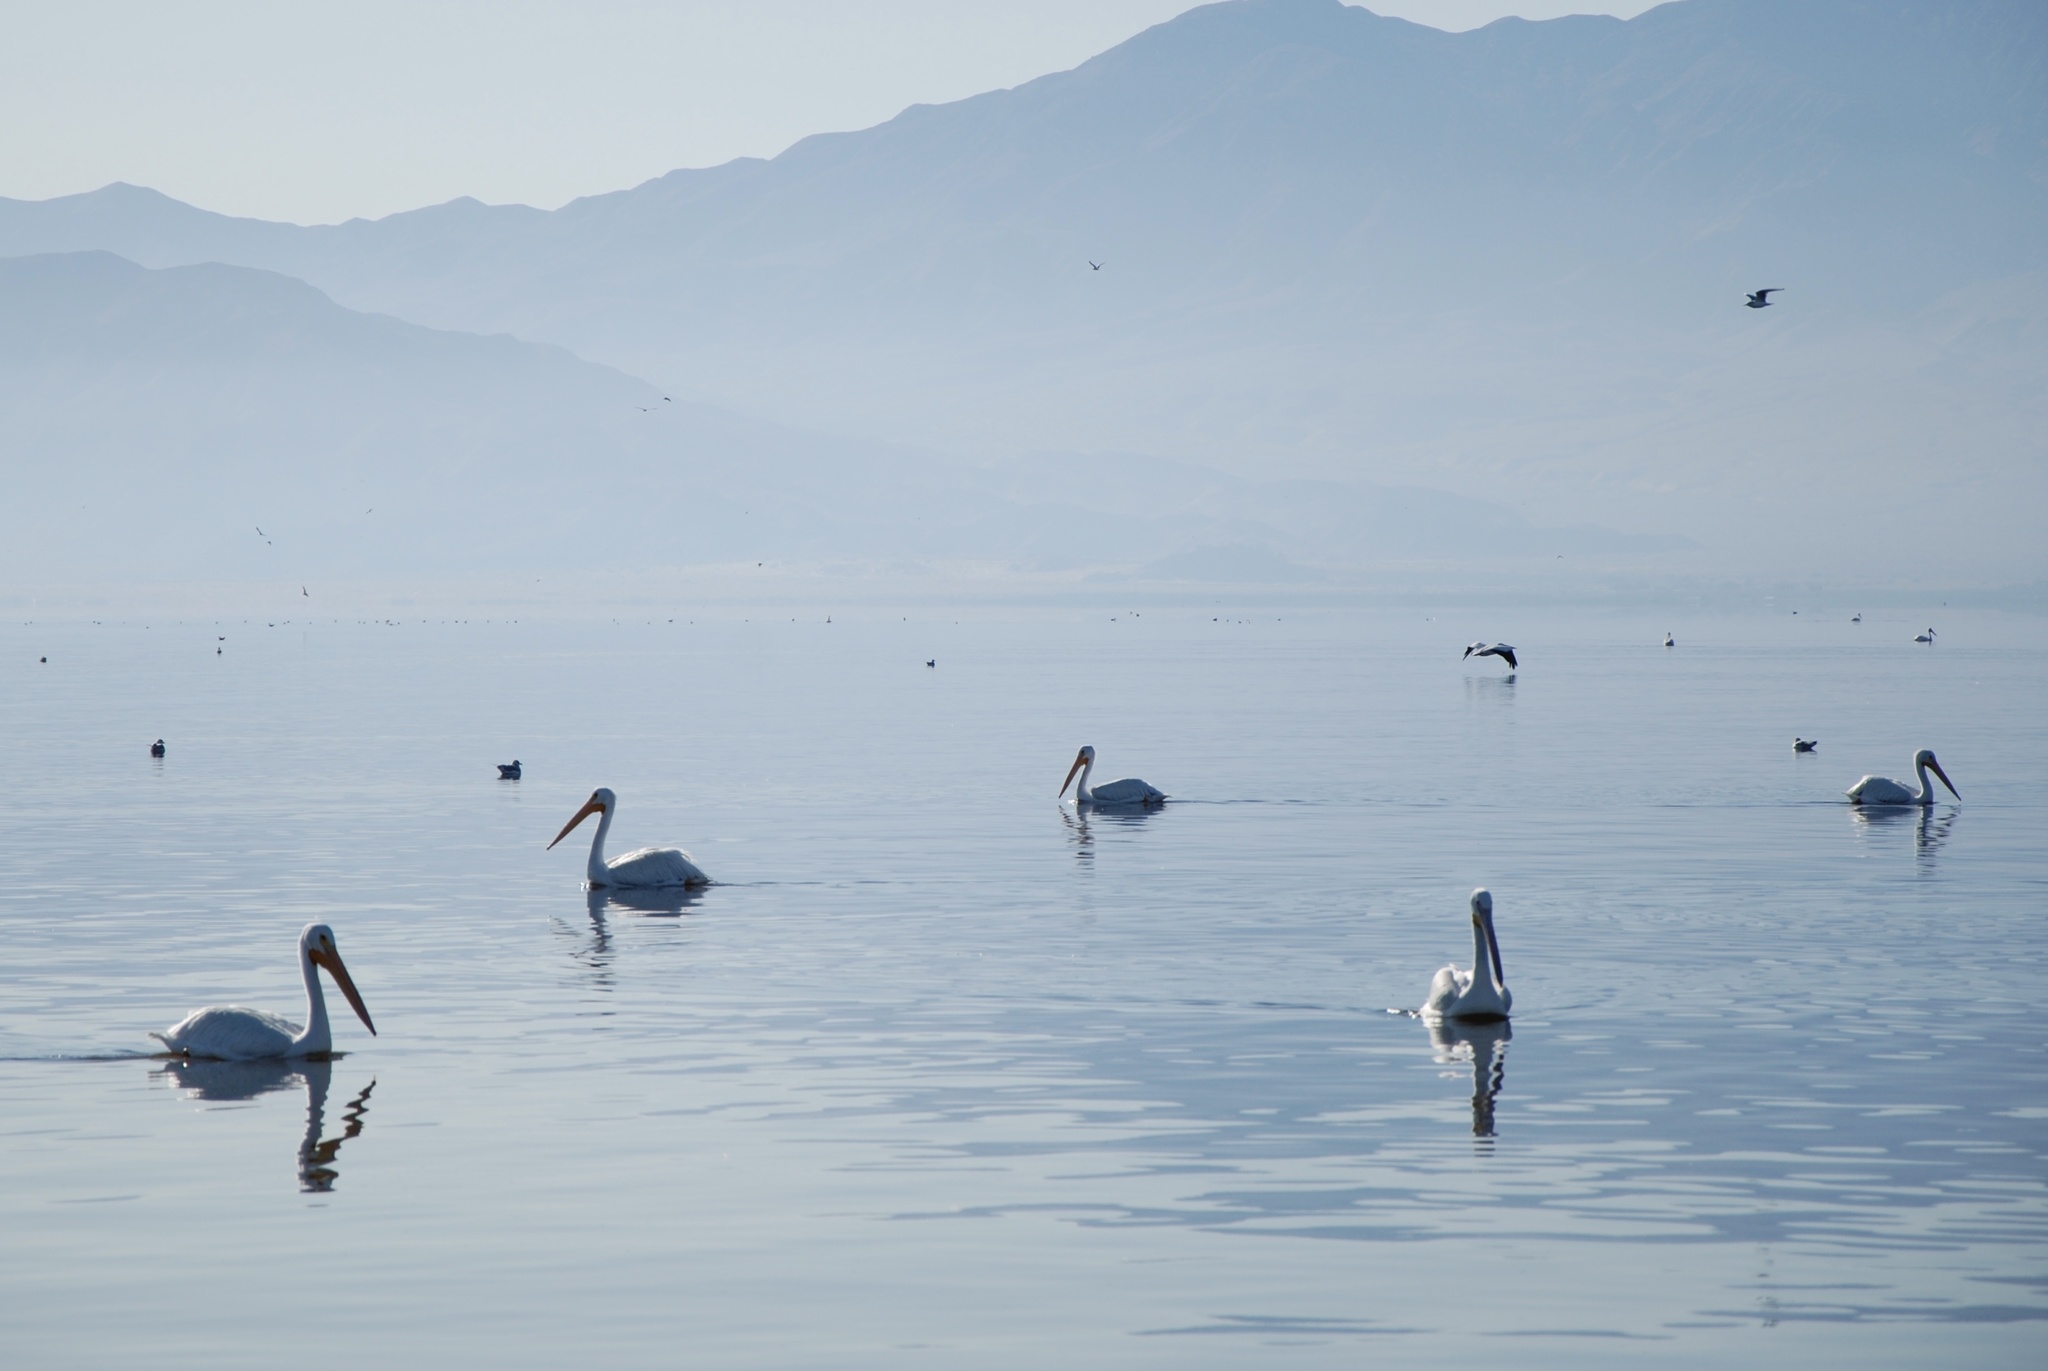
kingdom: Animalia
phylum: Chordata
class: Aves
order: Pelecaniformes
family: Pelecanidae
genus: Pelecanus
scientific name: Pelecanus erythrorhynchos
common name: American white pelican
